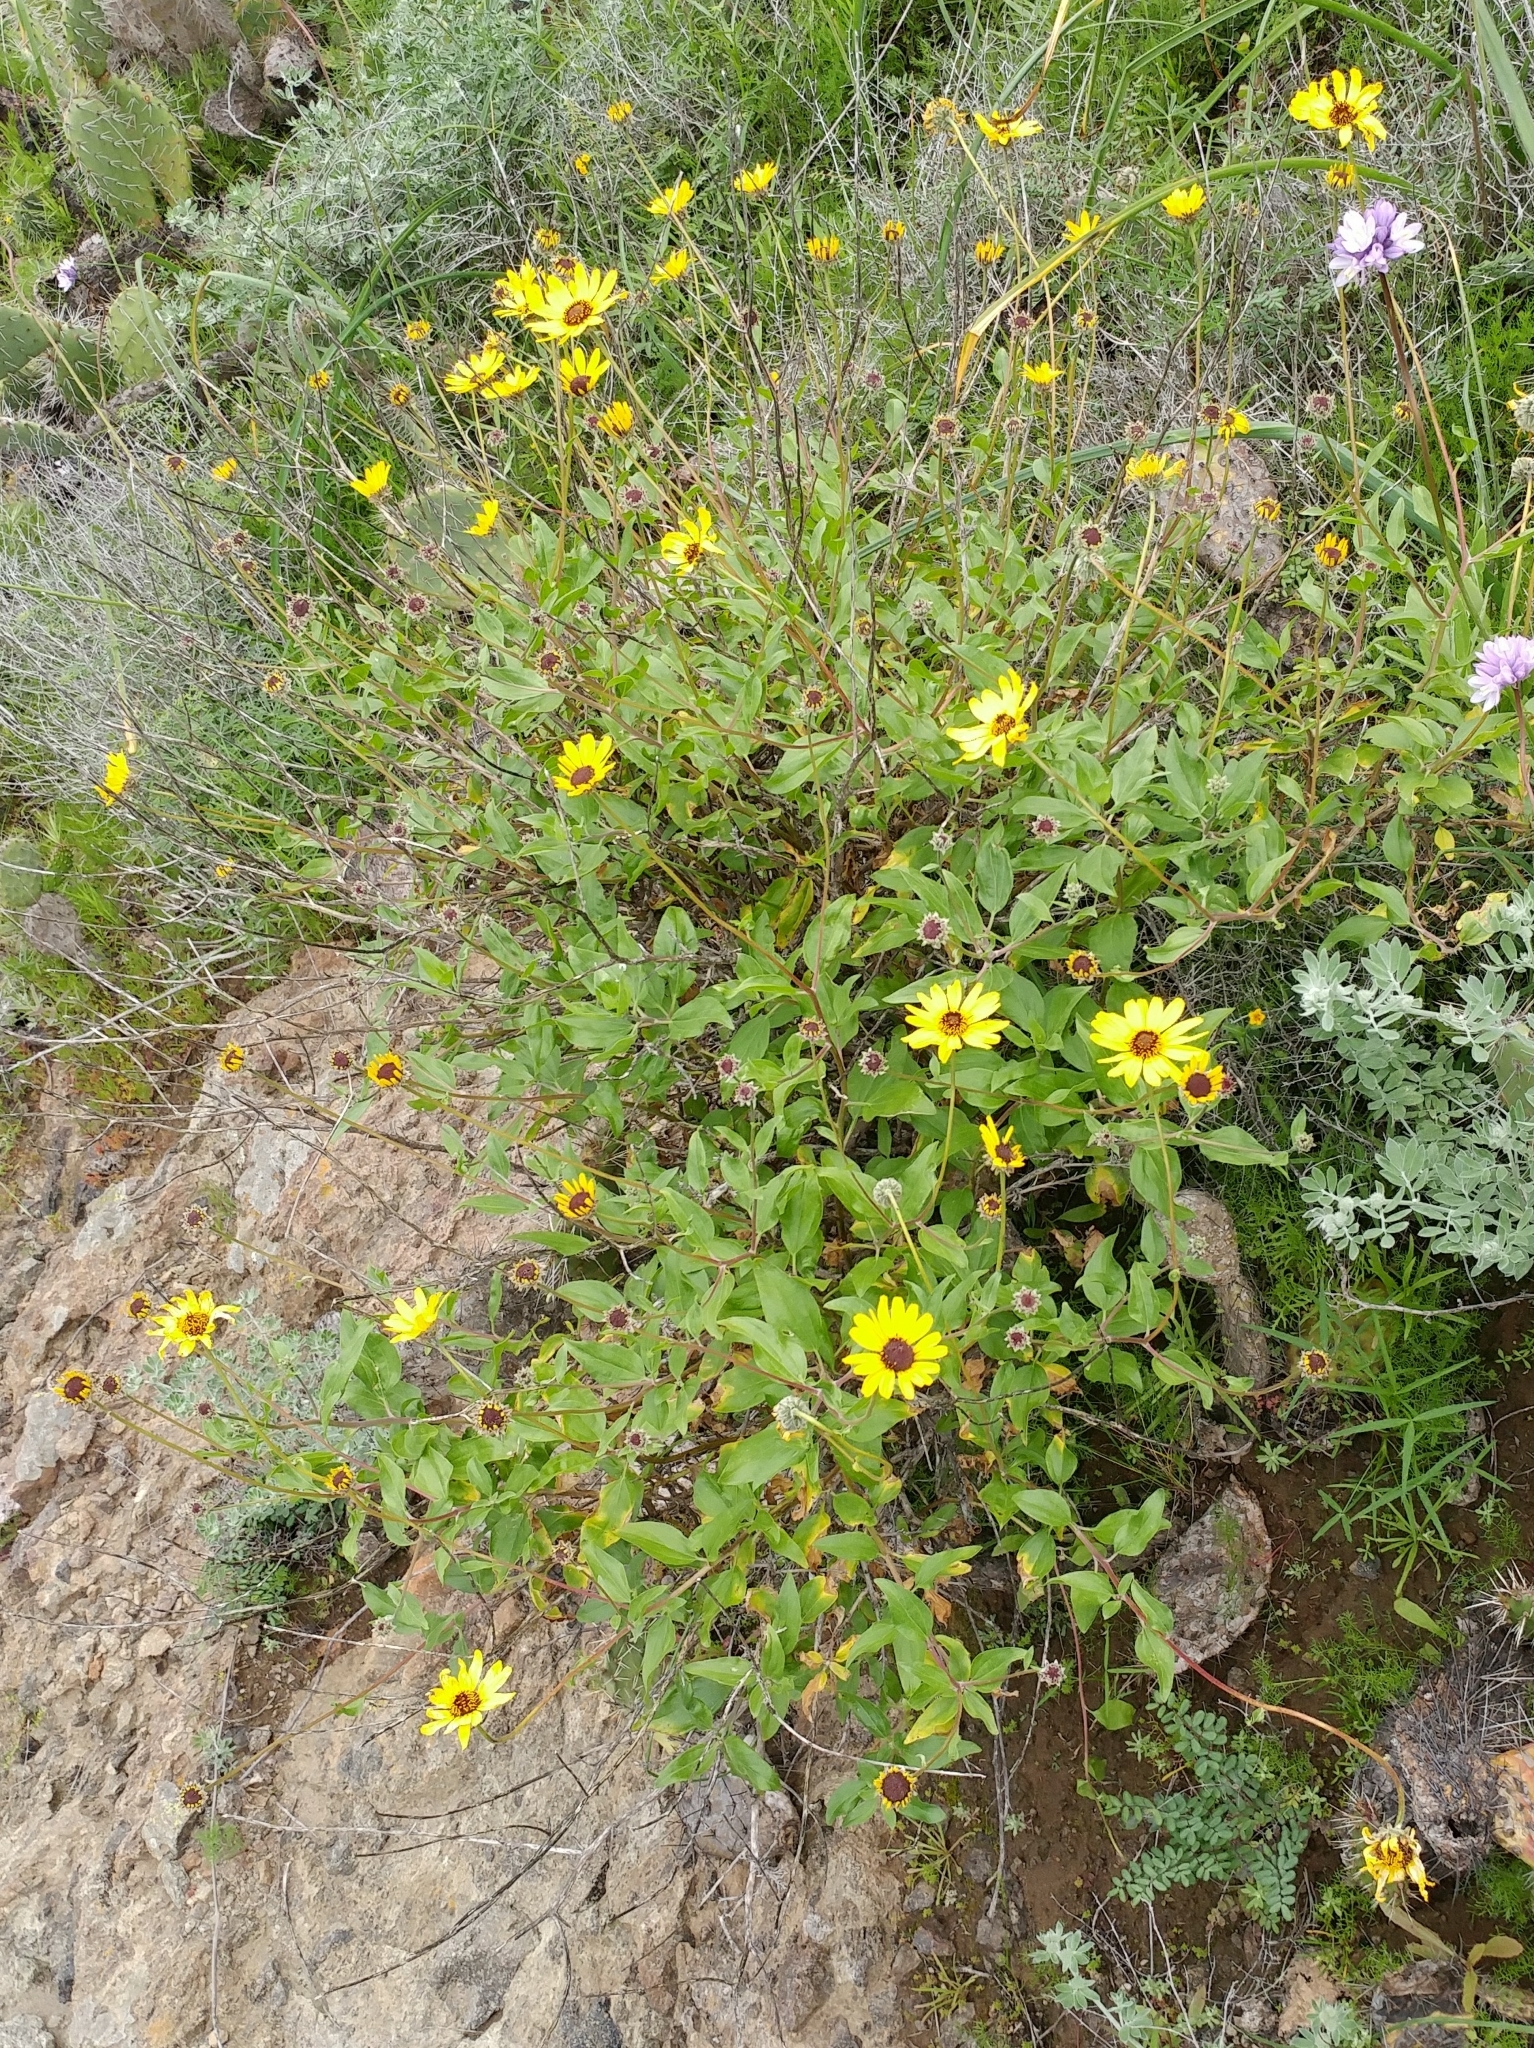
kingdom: Plantae
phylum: Tracheophyta
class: Magnoliopsida
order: Asterales
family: Asteraceae
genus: Encelia
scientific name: Encelia californica
